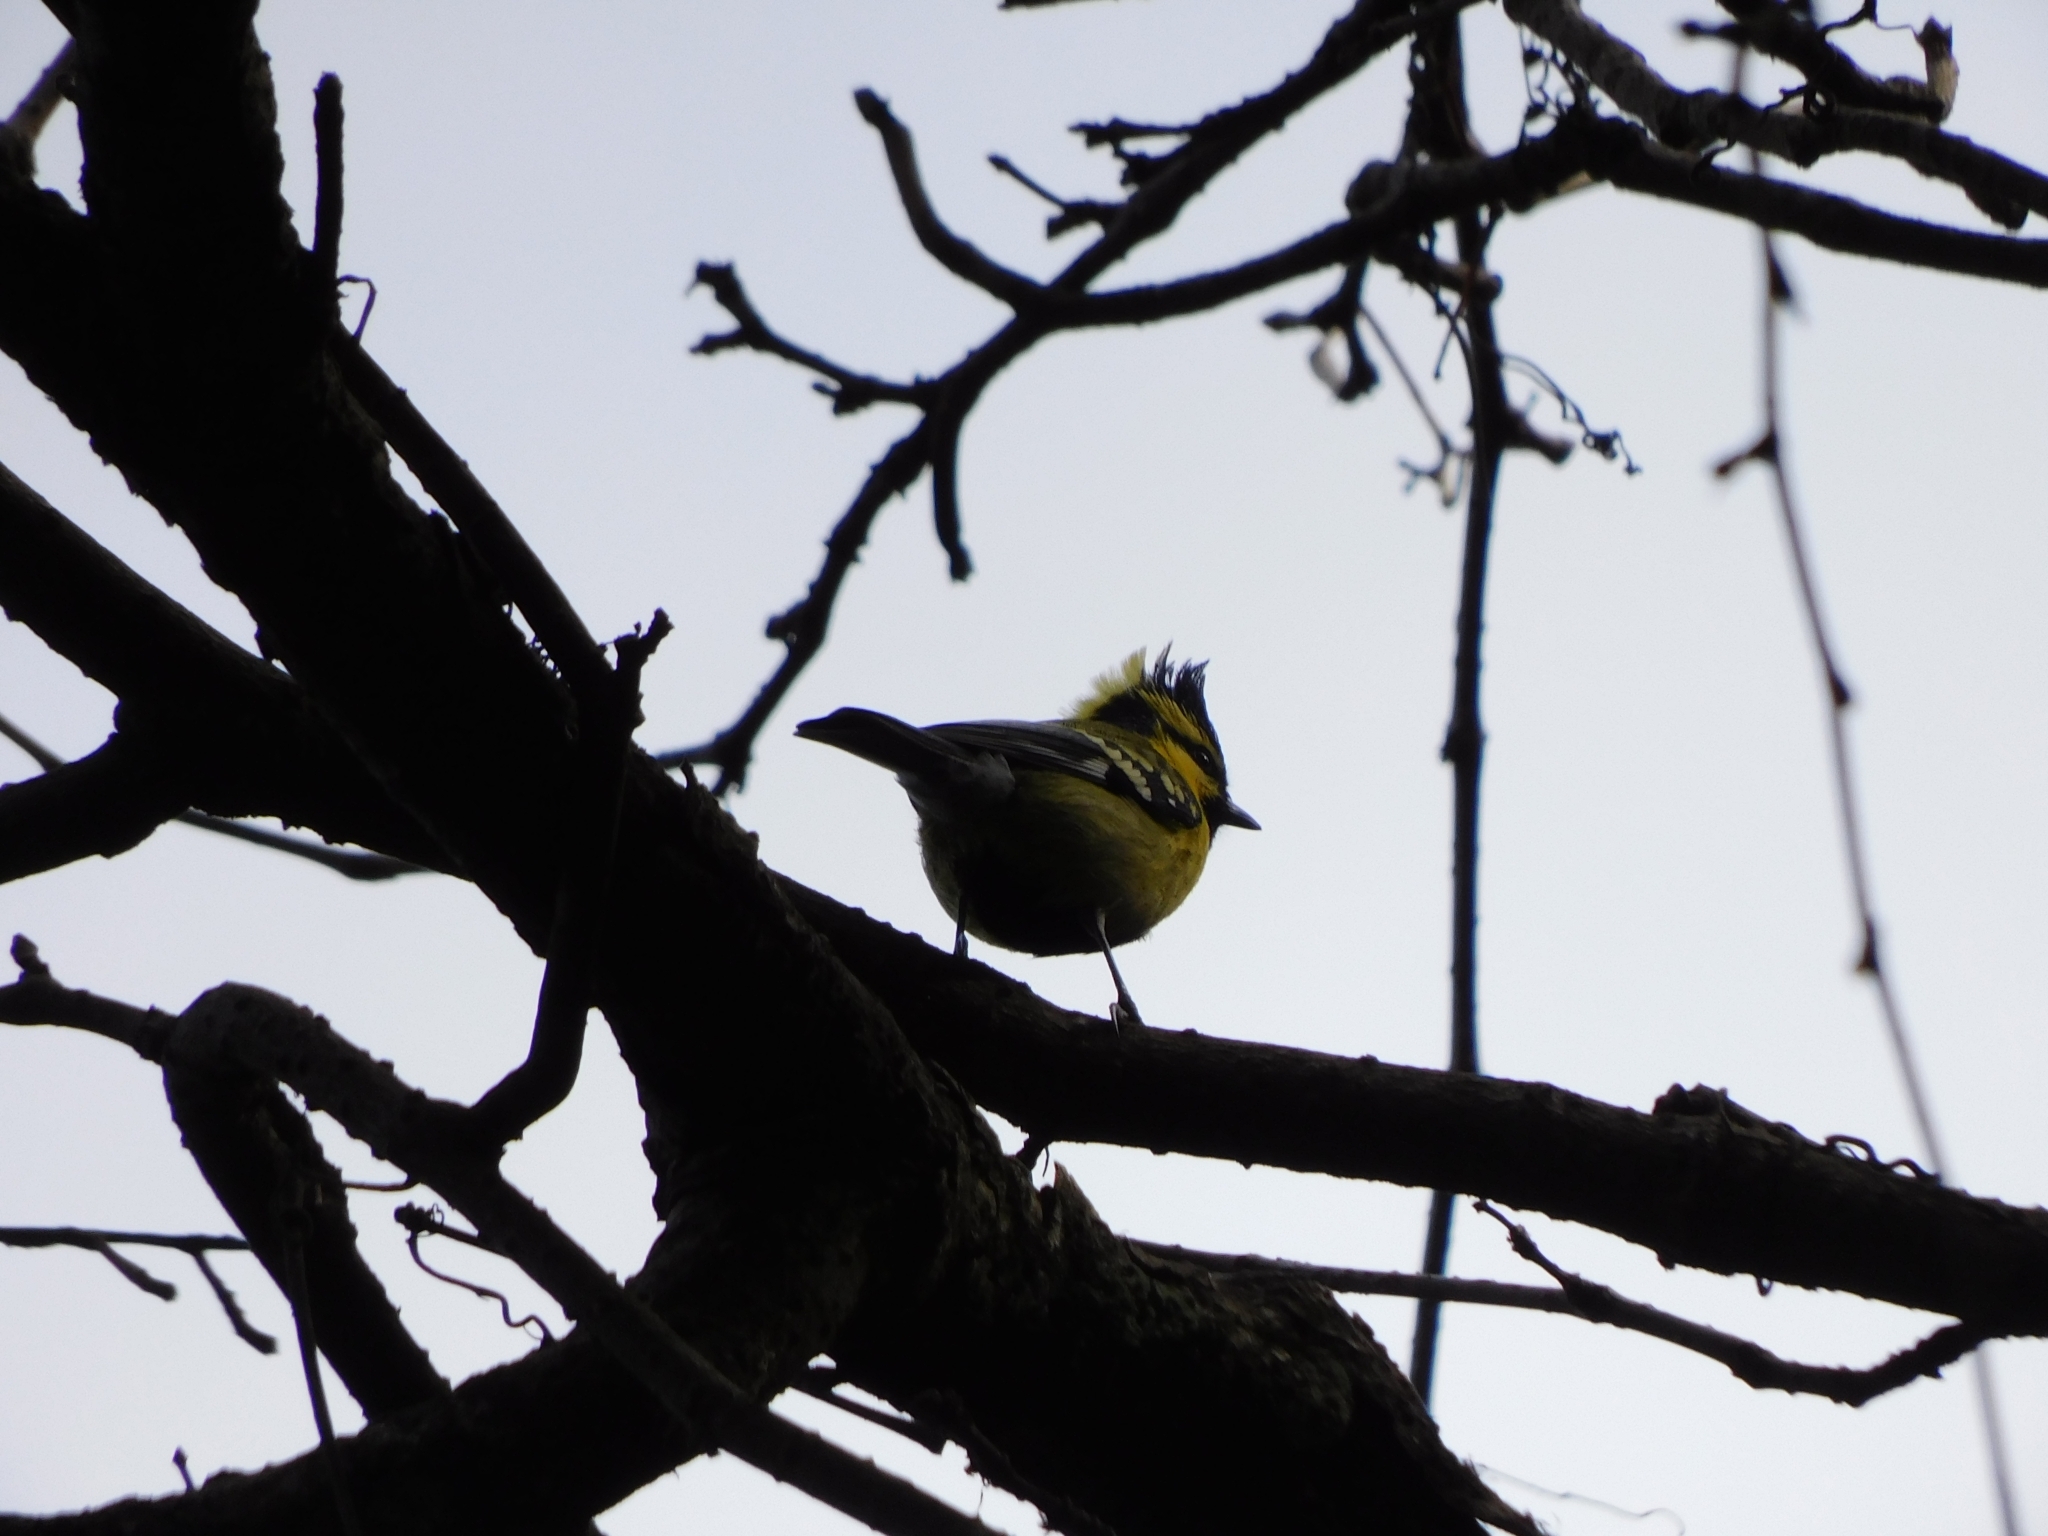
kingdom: Animalia
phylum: Chordata
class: Aves
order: Passeriformes
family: Paridae
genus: Parus
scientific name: Parus xanthogenys
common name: Black-lored tit
